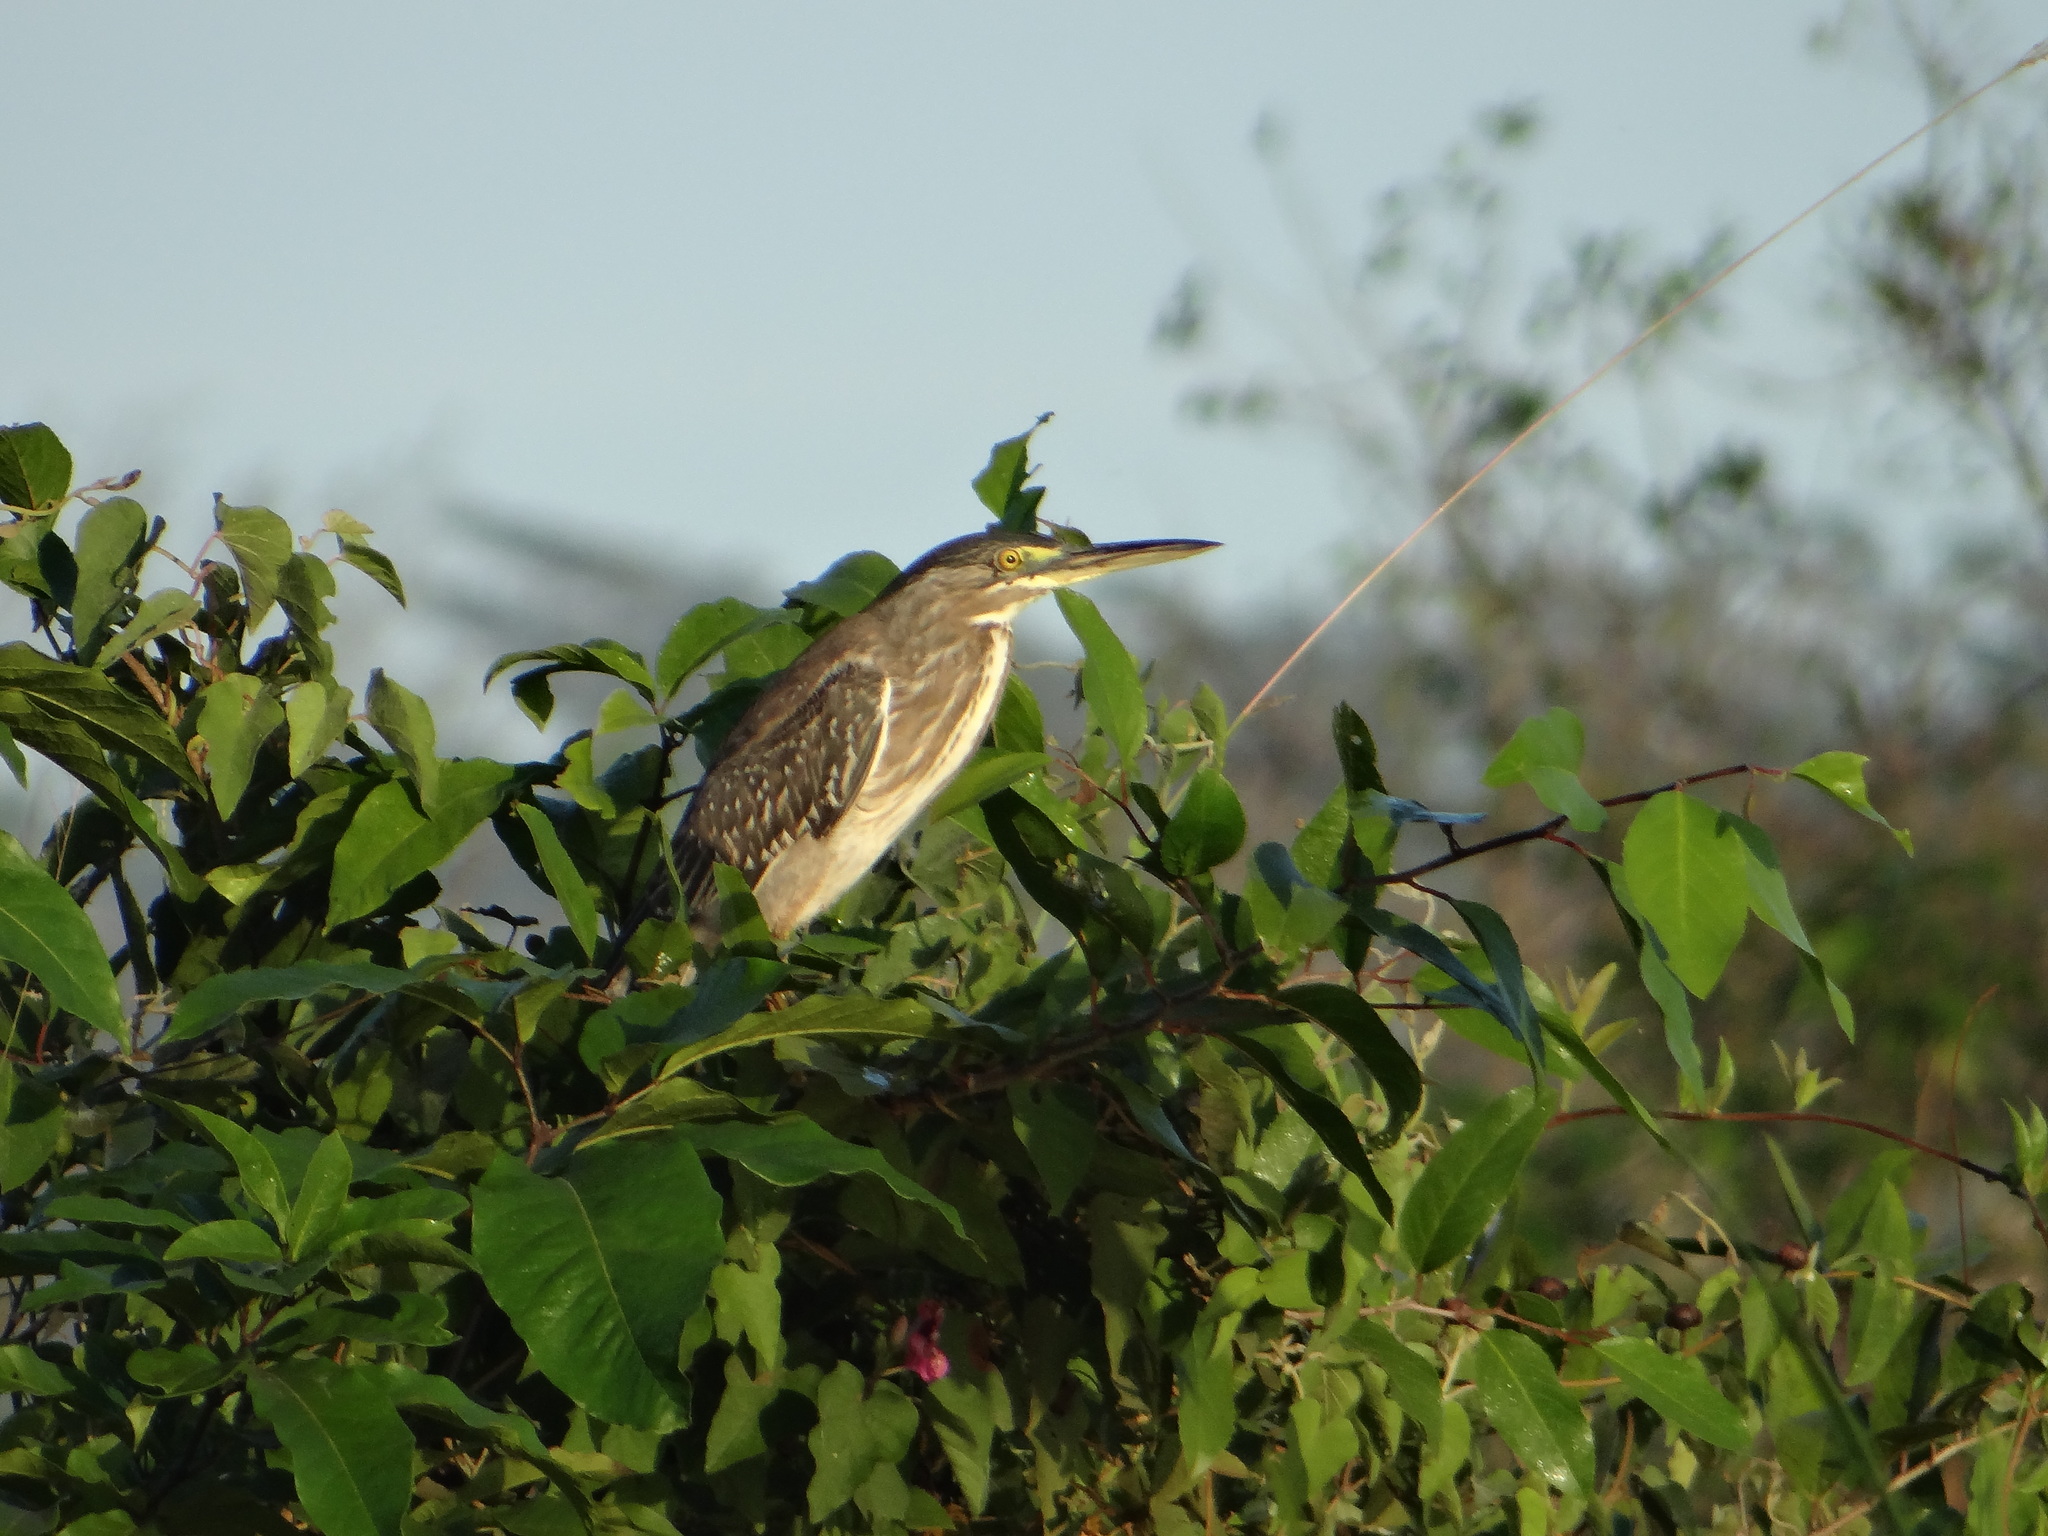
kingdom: Animalia
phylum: Chordata
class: Aves
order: Pelecaniformes
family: Ardeidae
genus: Butorides
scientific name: Butorides striata
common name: Striated heron
